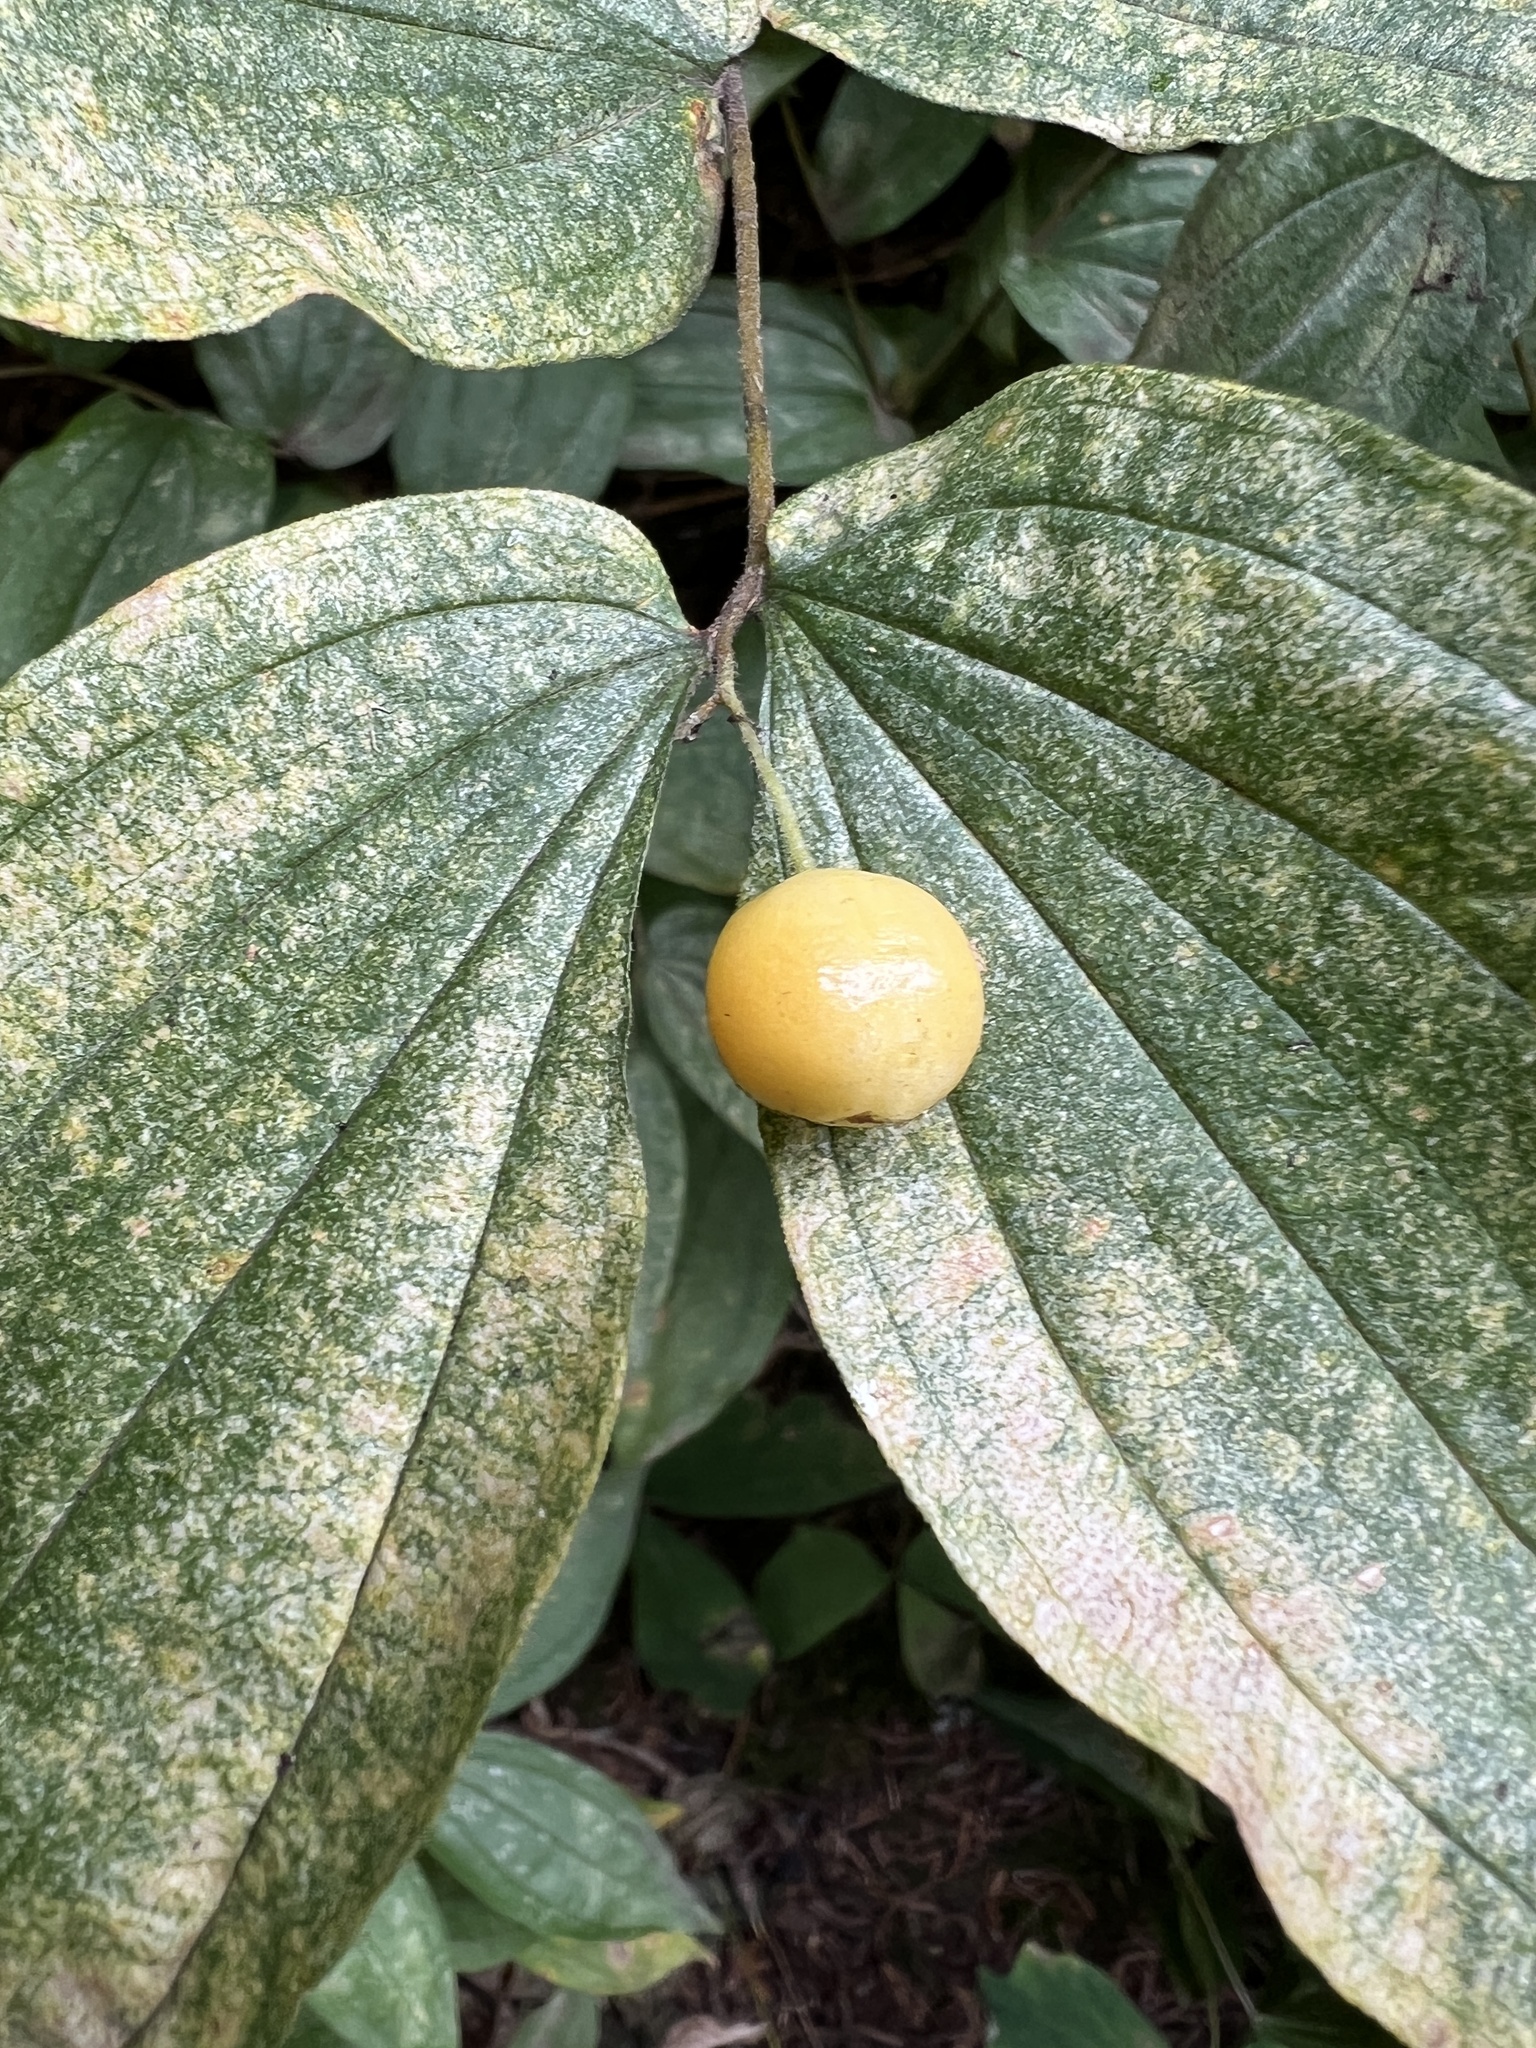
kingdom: Plantae
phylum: Tracheophyta
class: Liliopsida
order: Liliales
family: Liliaceae
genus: Prosartes
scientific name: Prosartes hookeri
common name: Fairy-bells
